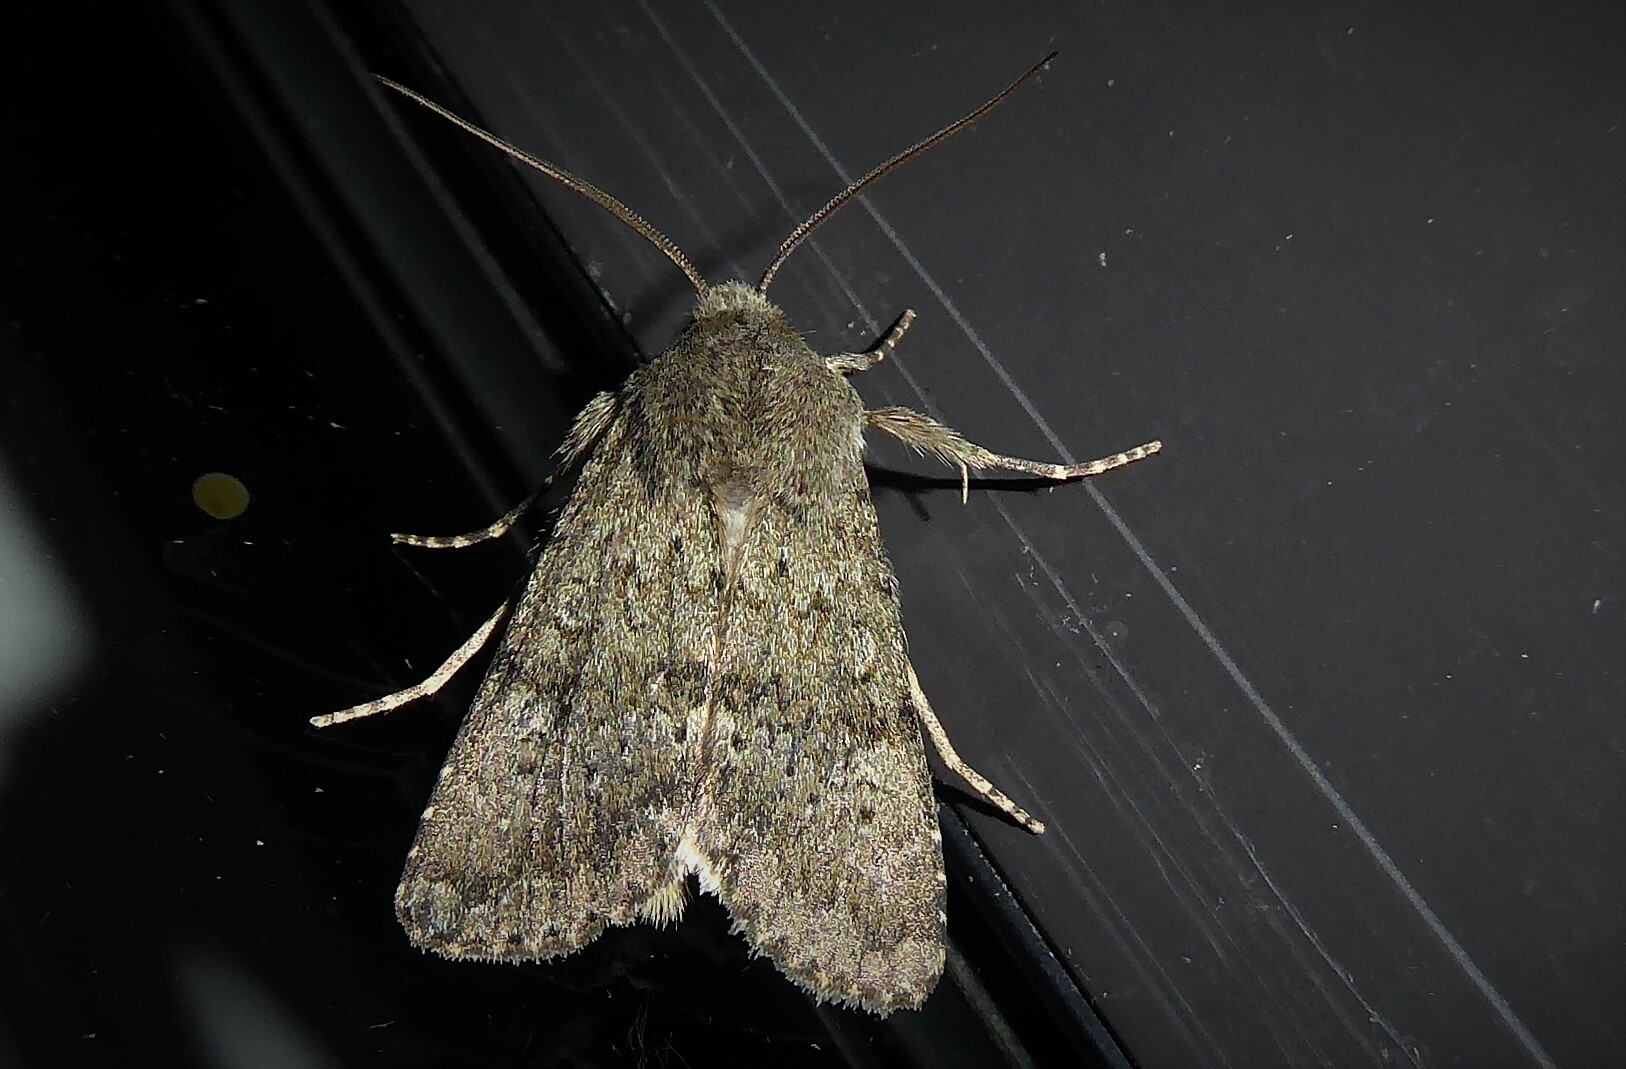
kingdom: Animalia
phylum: Arthropoda
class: Insecta
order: Lepidoptera
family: Noctuidae
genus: Ichneutica
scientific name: Ichneutica moderata
